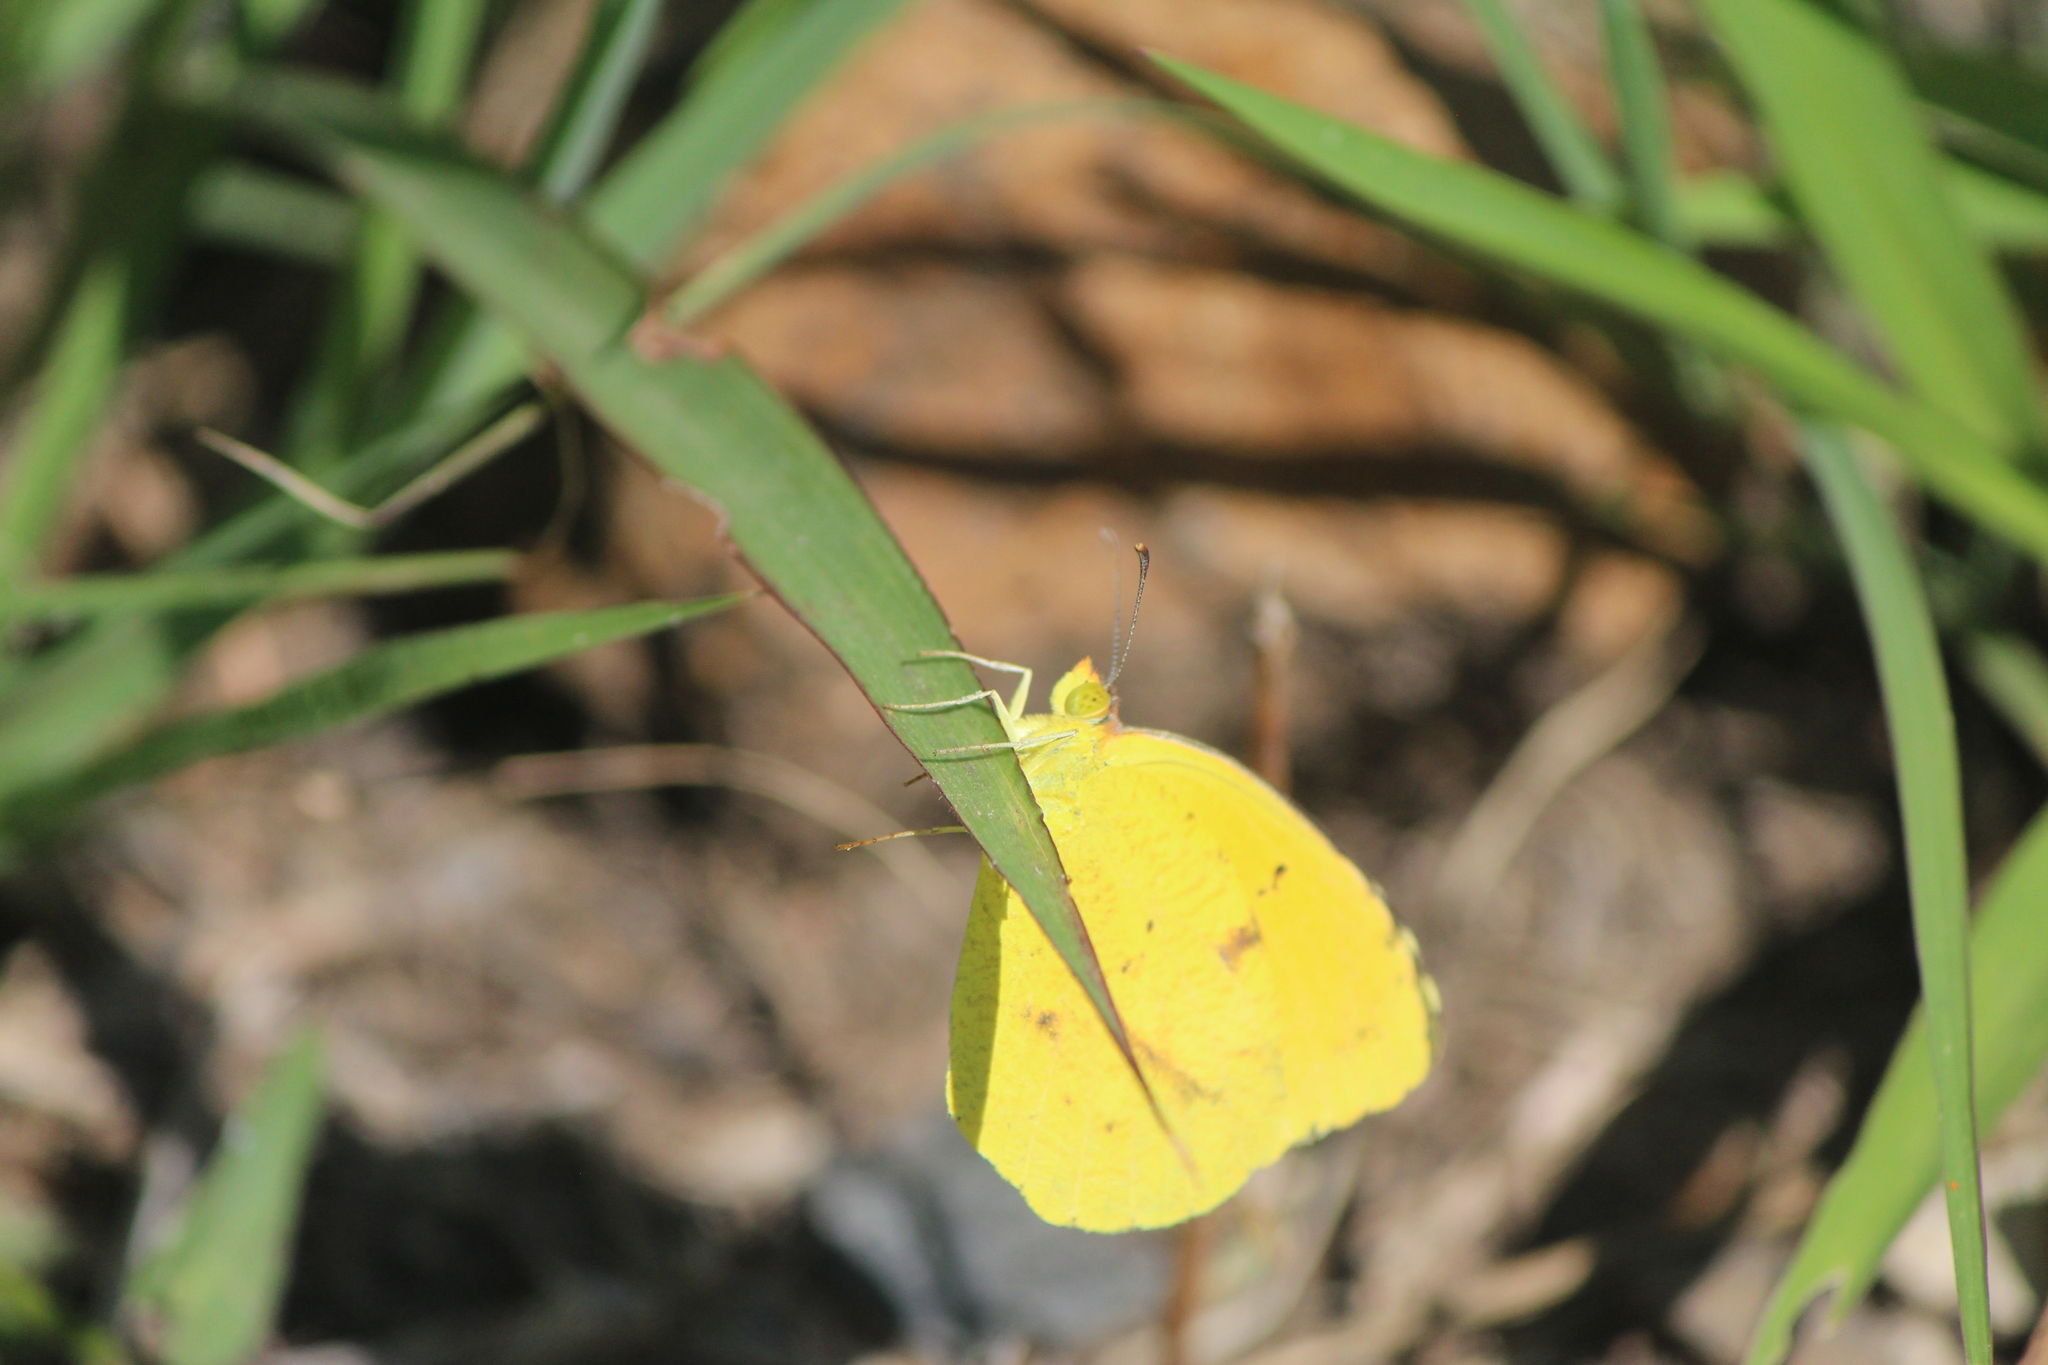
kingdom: Animalia
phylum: Arthropoda
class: Insecta
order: Lepidoptera
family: Pieridae
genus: Abaeis
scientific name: Abaeis nicippe
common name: Sleepy orange
